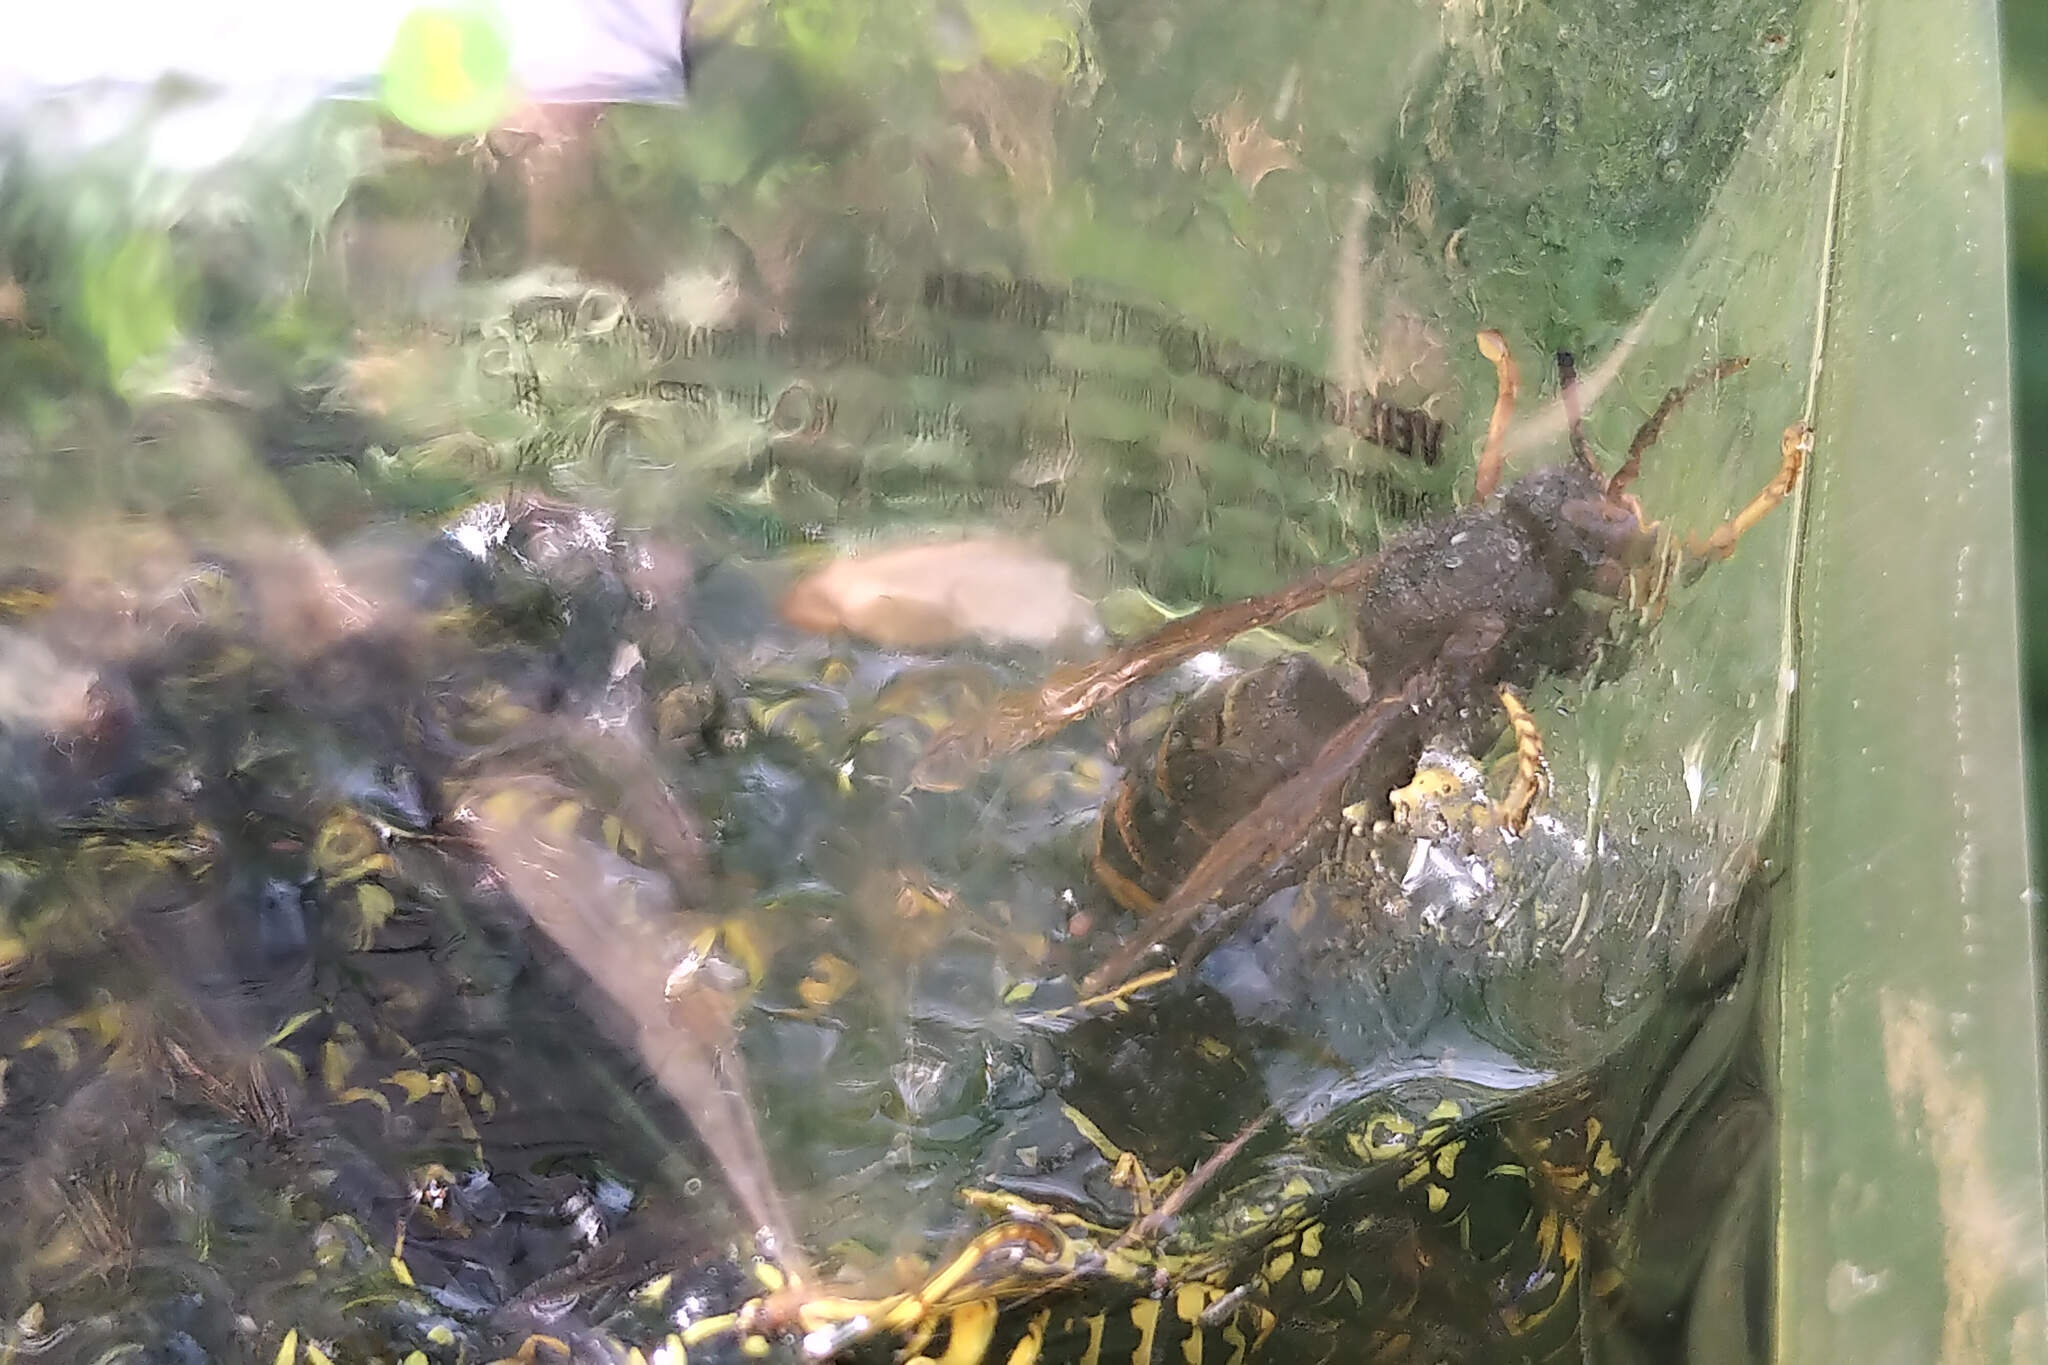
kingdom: Animalia
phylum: Arthropoda
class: Insecta
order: Hymenoptera
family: Vespidae
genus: Vespa
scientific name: Vespa velutina
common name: Asian hornet
